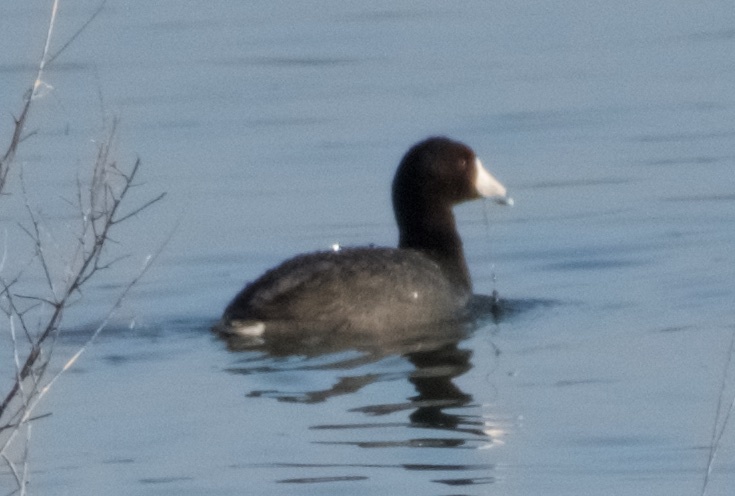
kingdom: Animalia
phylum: Chordata
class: Aves
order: Gruiformes
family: Rallidae
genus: Fulica
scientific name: Fulica americana
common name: American coot
